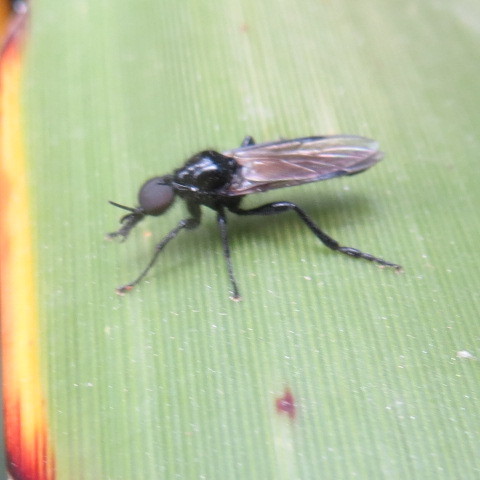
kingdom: Animalia
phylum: Arthropoda
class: Insecta
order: Diptera
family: Bibionidae
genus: Dilophus
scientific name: Dilophus nigrostigma
